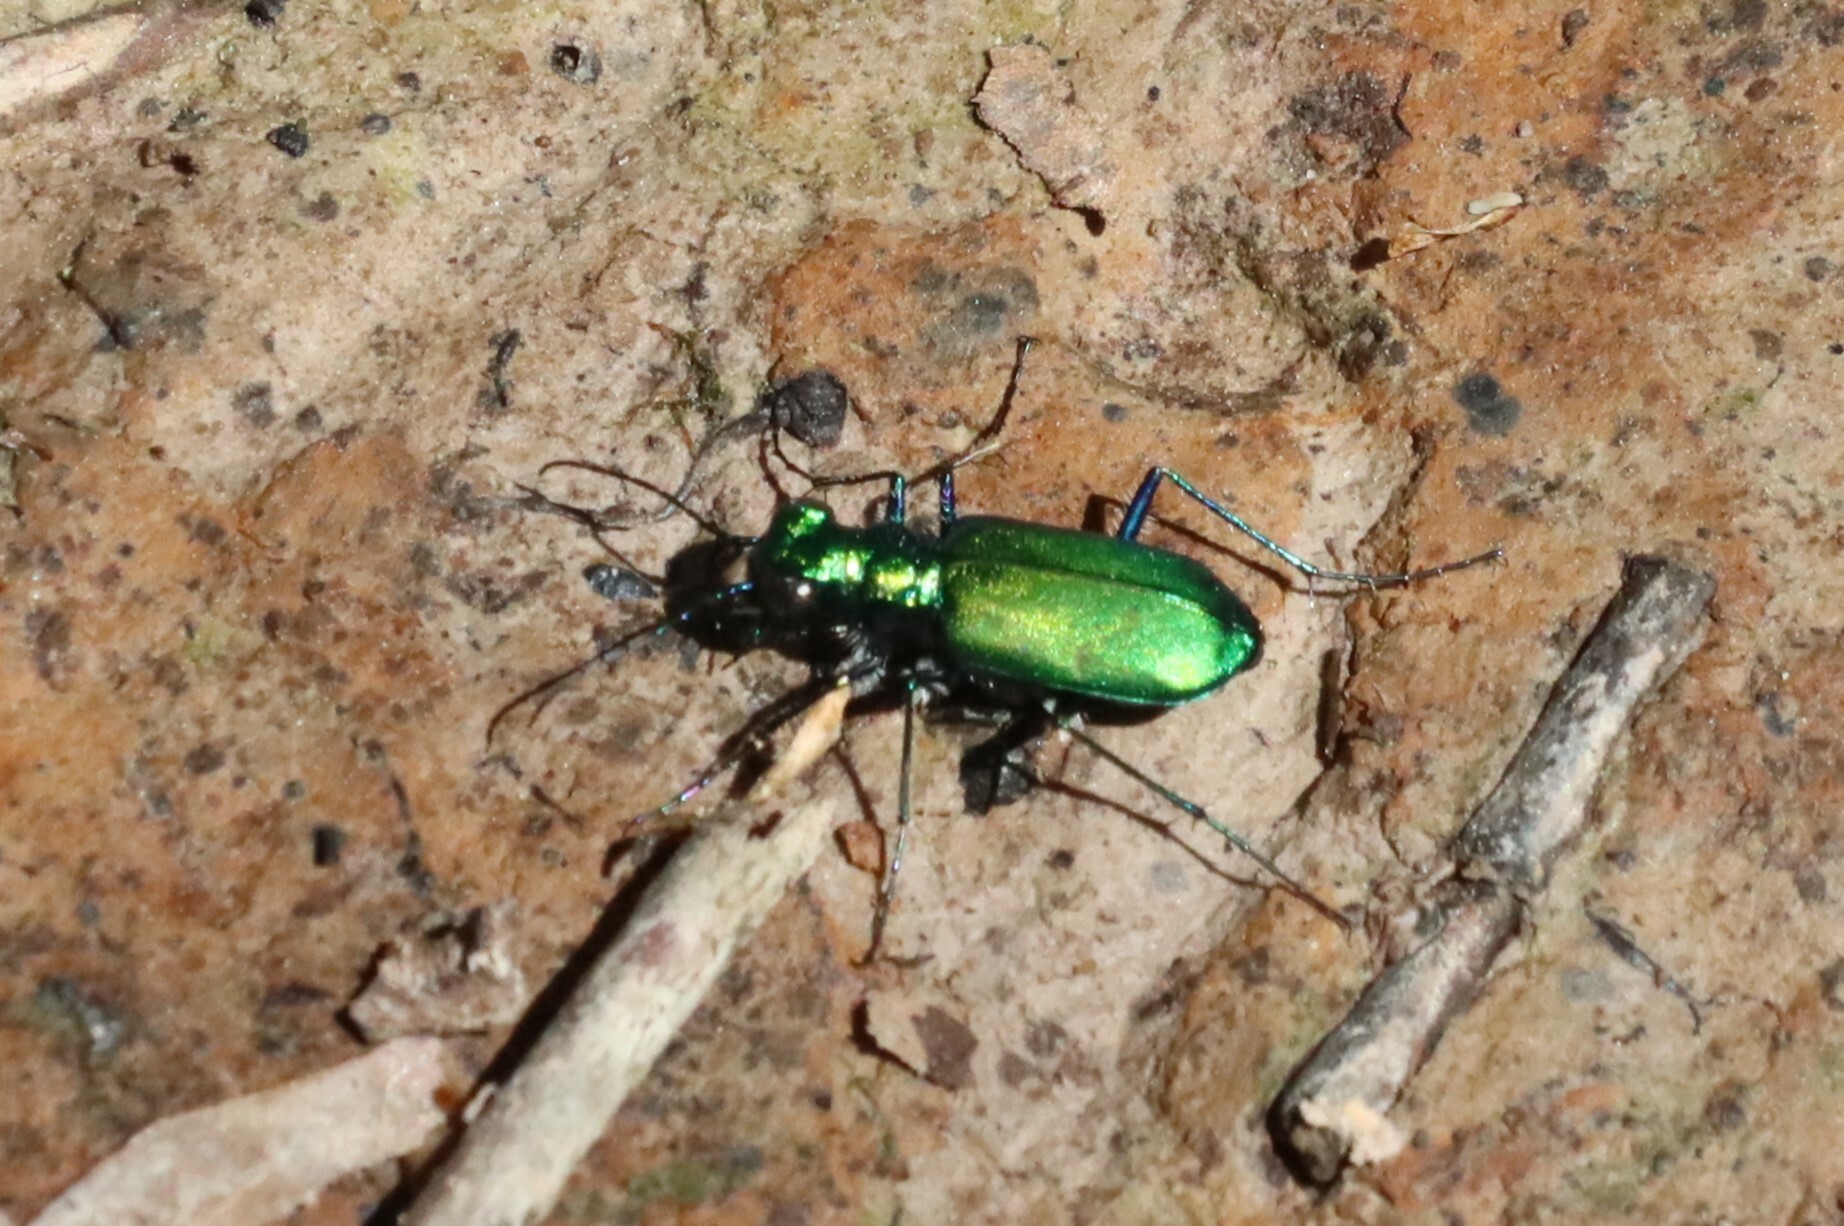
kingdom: Animalia
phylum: Arthropoda
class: Insecta
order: Coleoptera
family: Carabidae
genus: Cicindela
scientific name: Cicindela sexguttata
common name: Six-spotted tiger beetle
